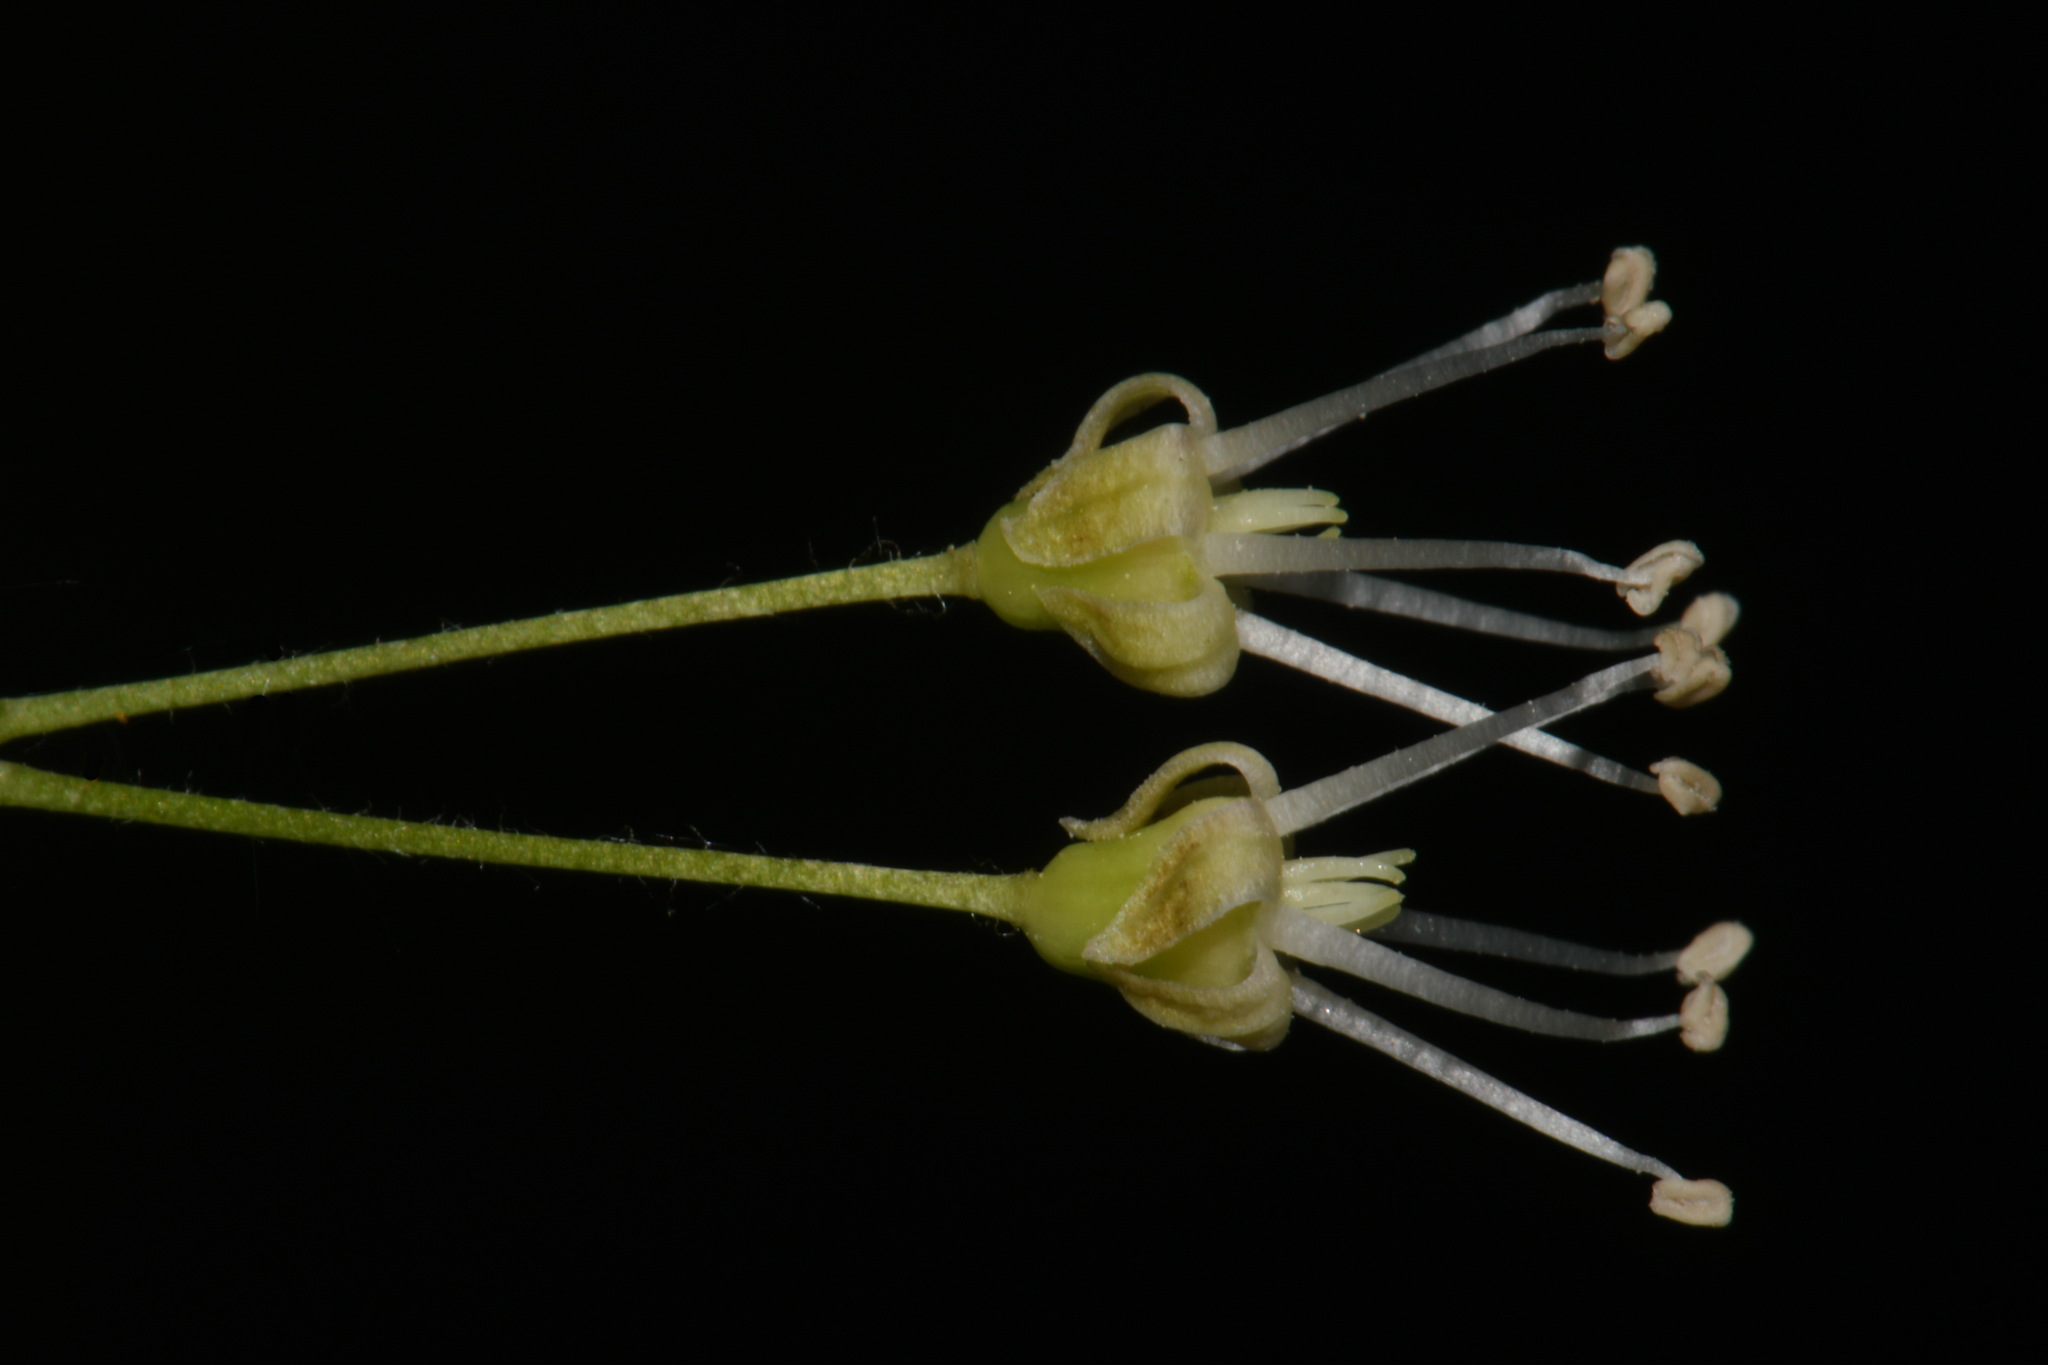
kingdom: Plantae
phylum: Tracheophyta
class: Magnoliopsida
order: Apiales
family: Araliaceae
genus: Aralia
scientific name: Aralia nudicaulis
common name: Wild sarsaparilla
